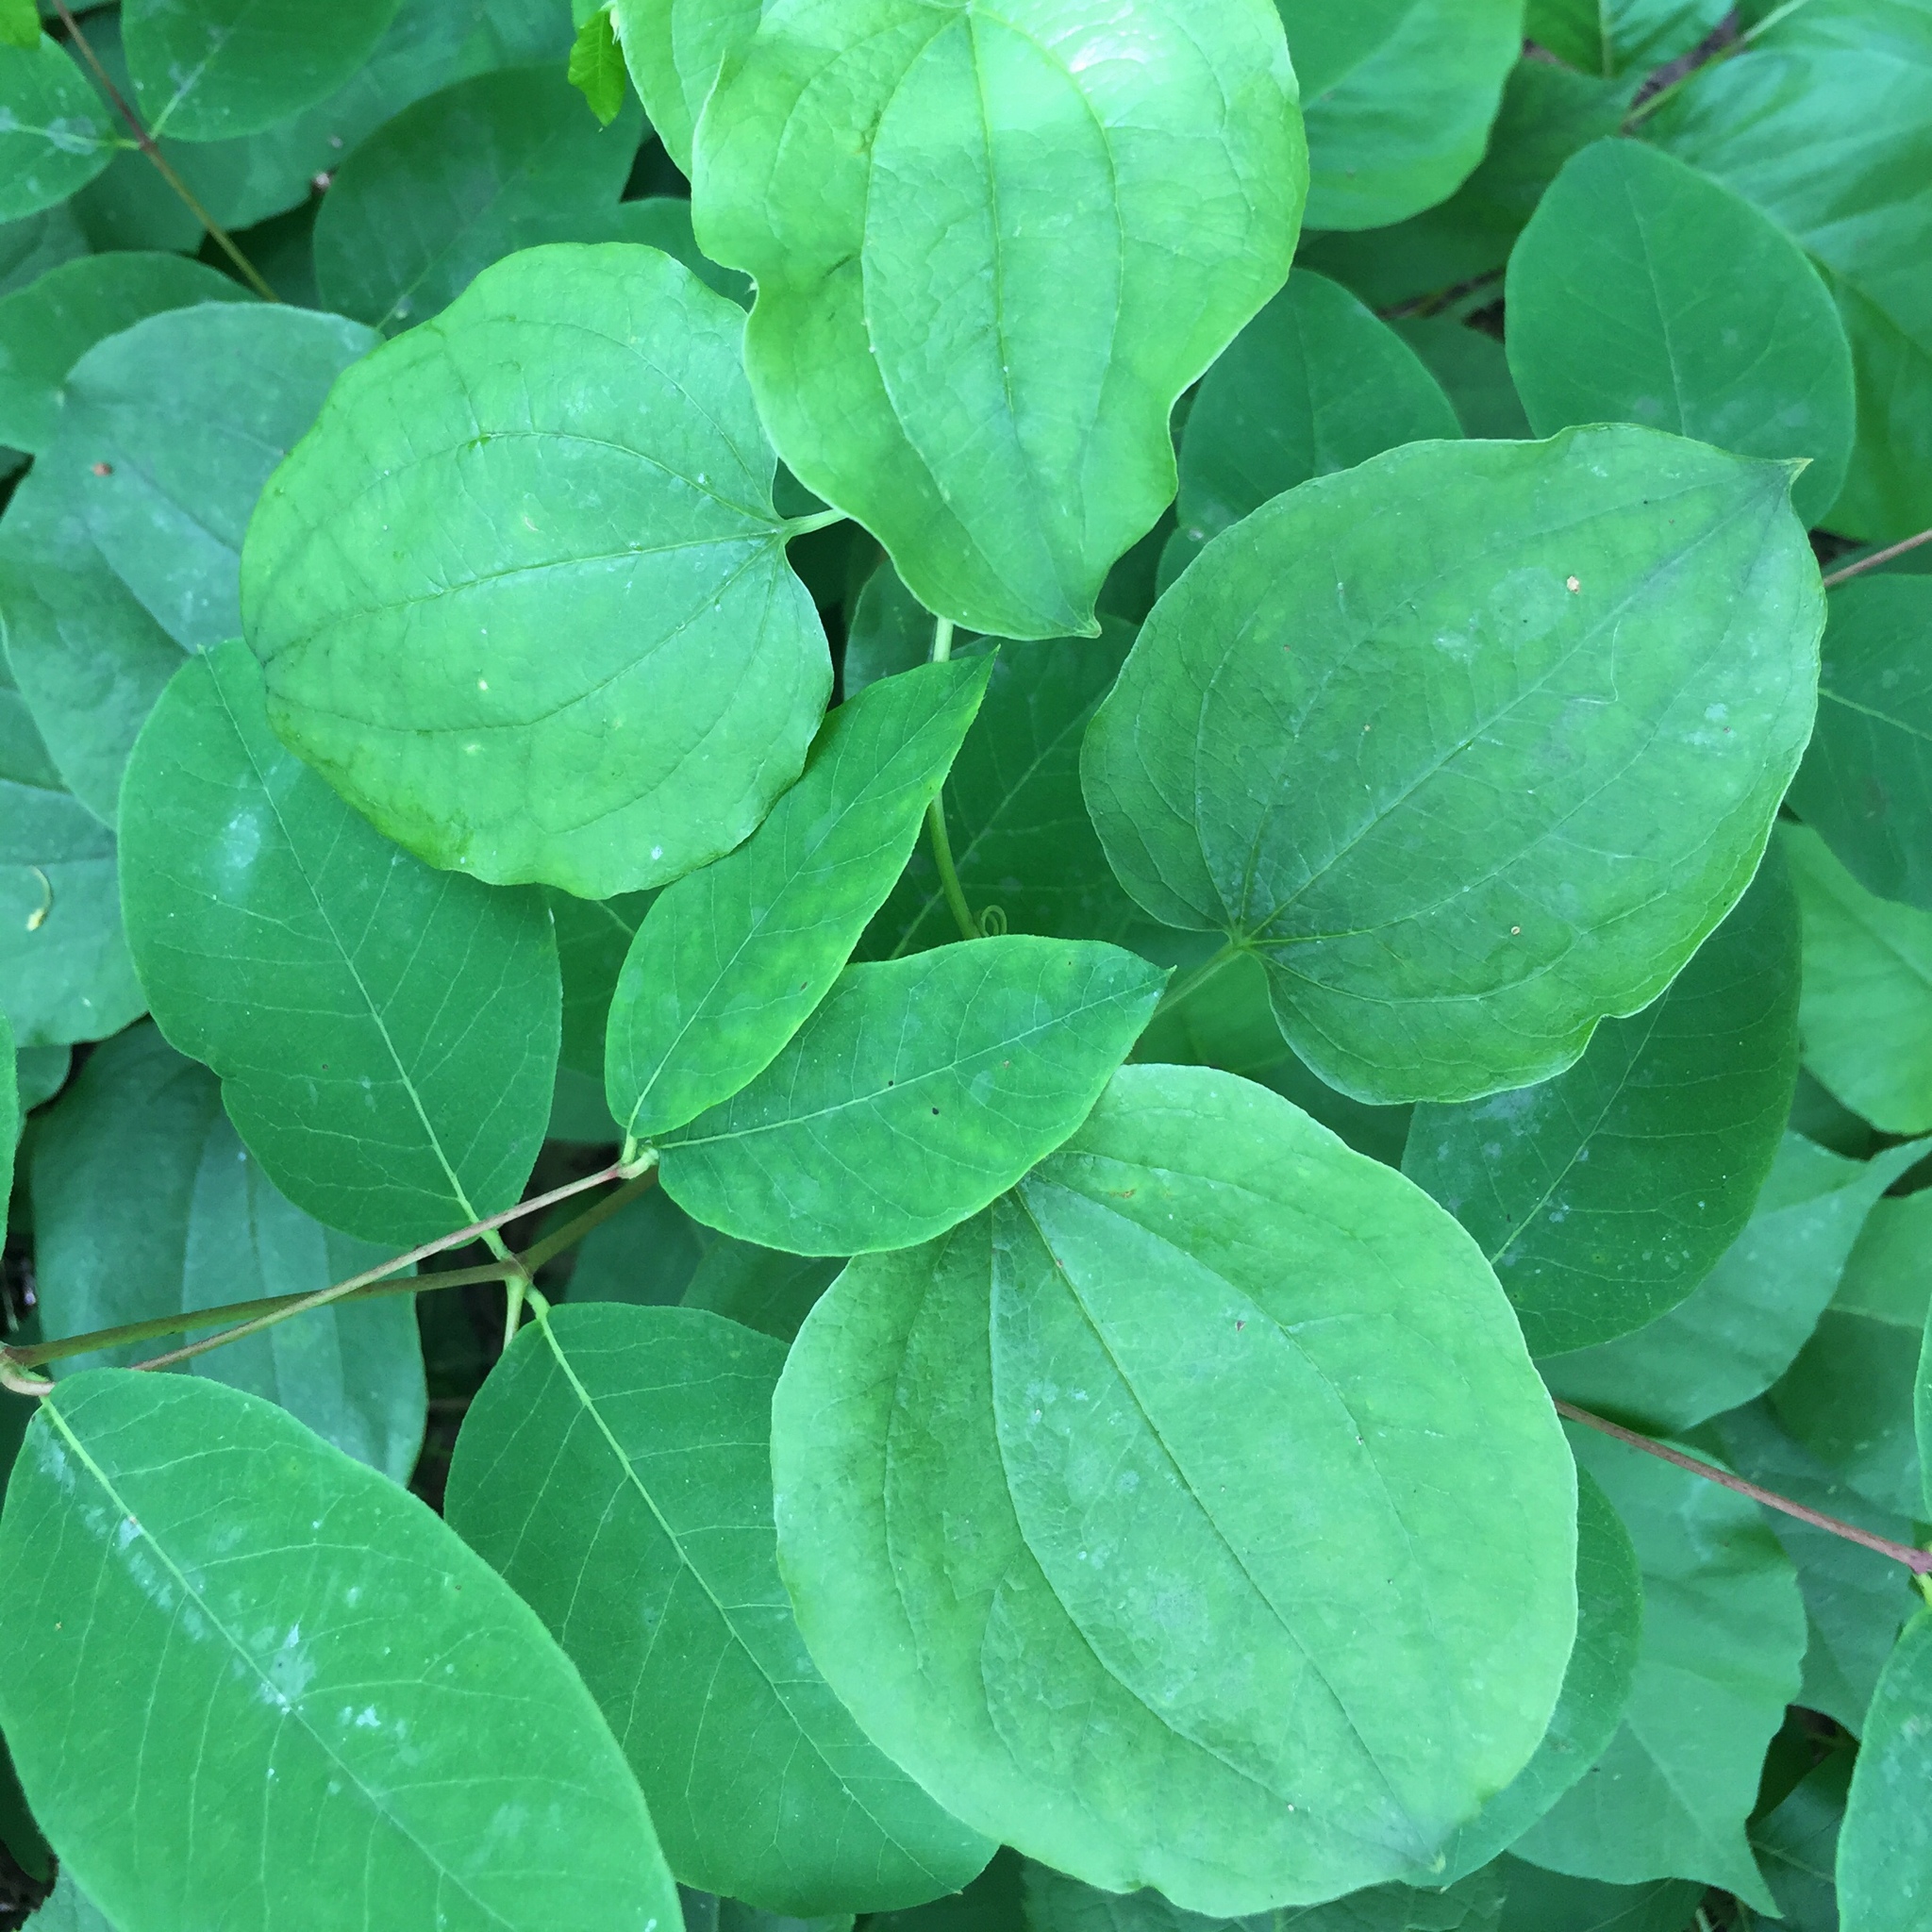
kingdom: Plantae
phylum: Tracheophyta
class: Liliopsida
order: Liliales
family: Smilacaceae
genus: Smilax
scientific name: Smilax lasioneura
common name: Blue ridge carrionflower
